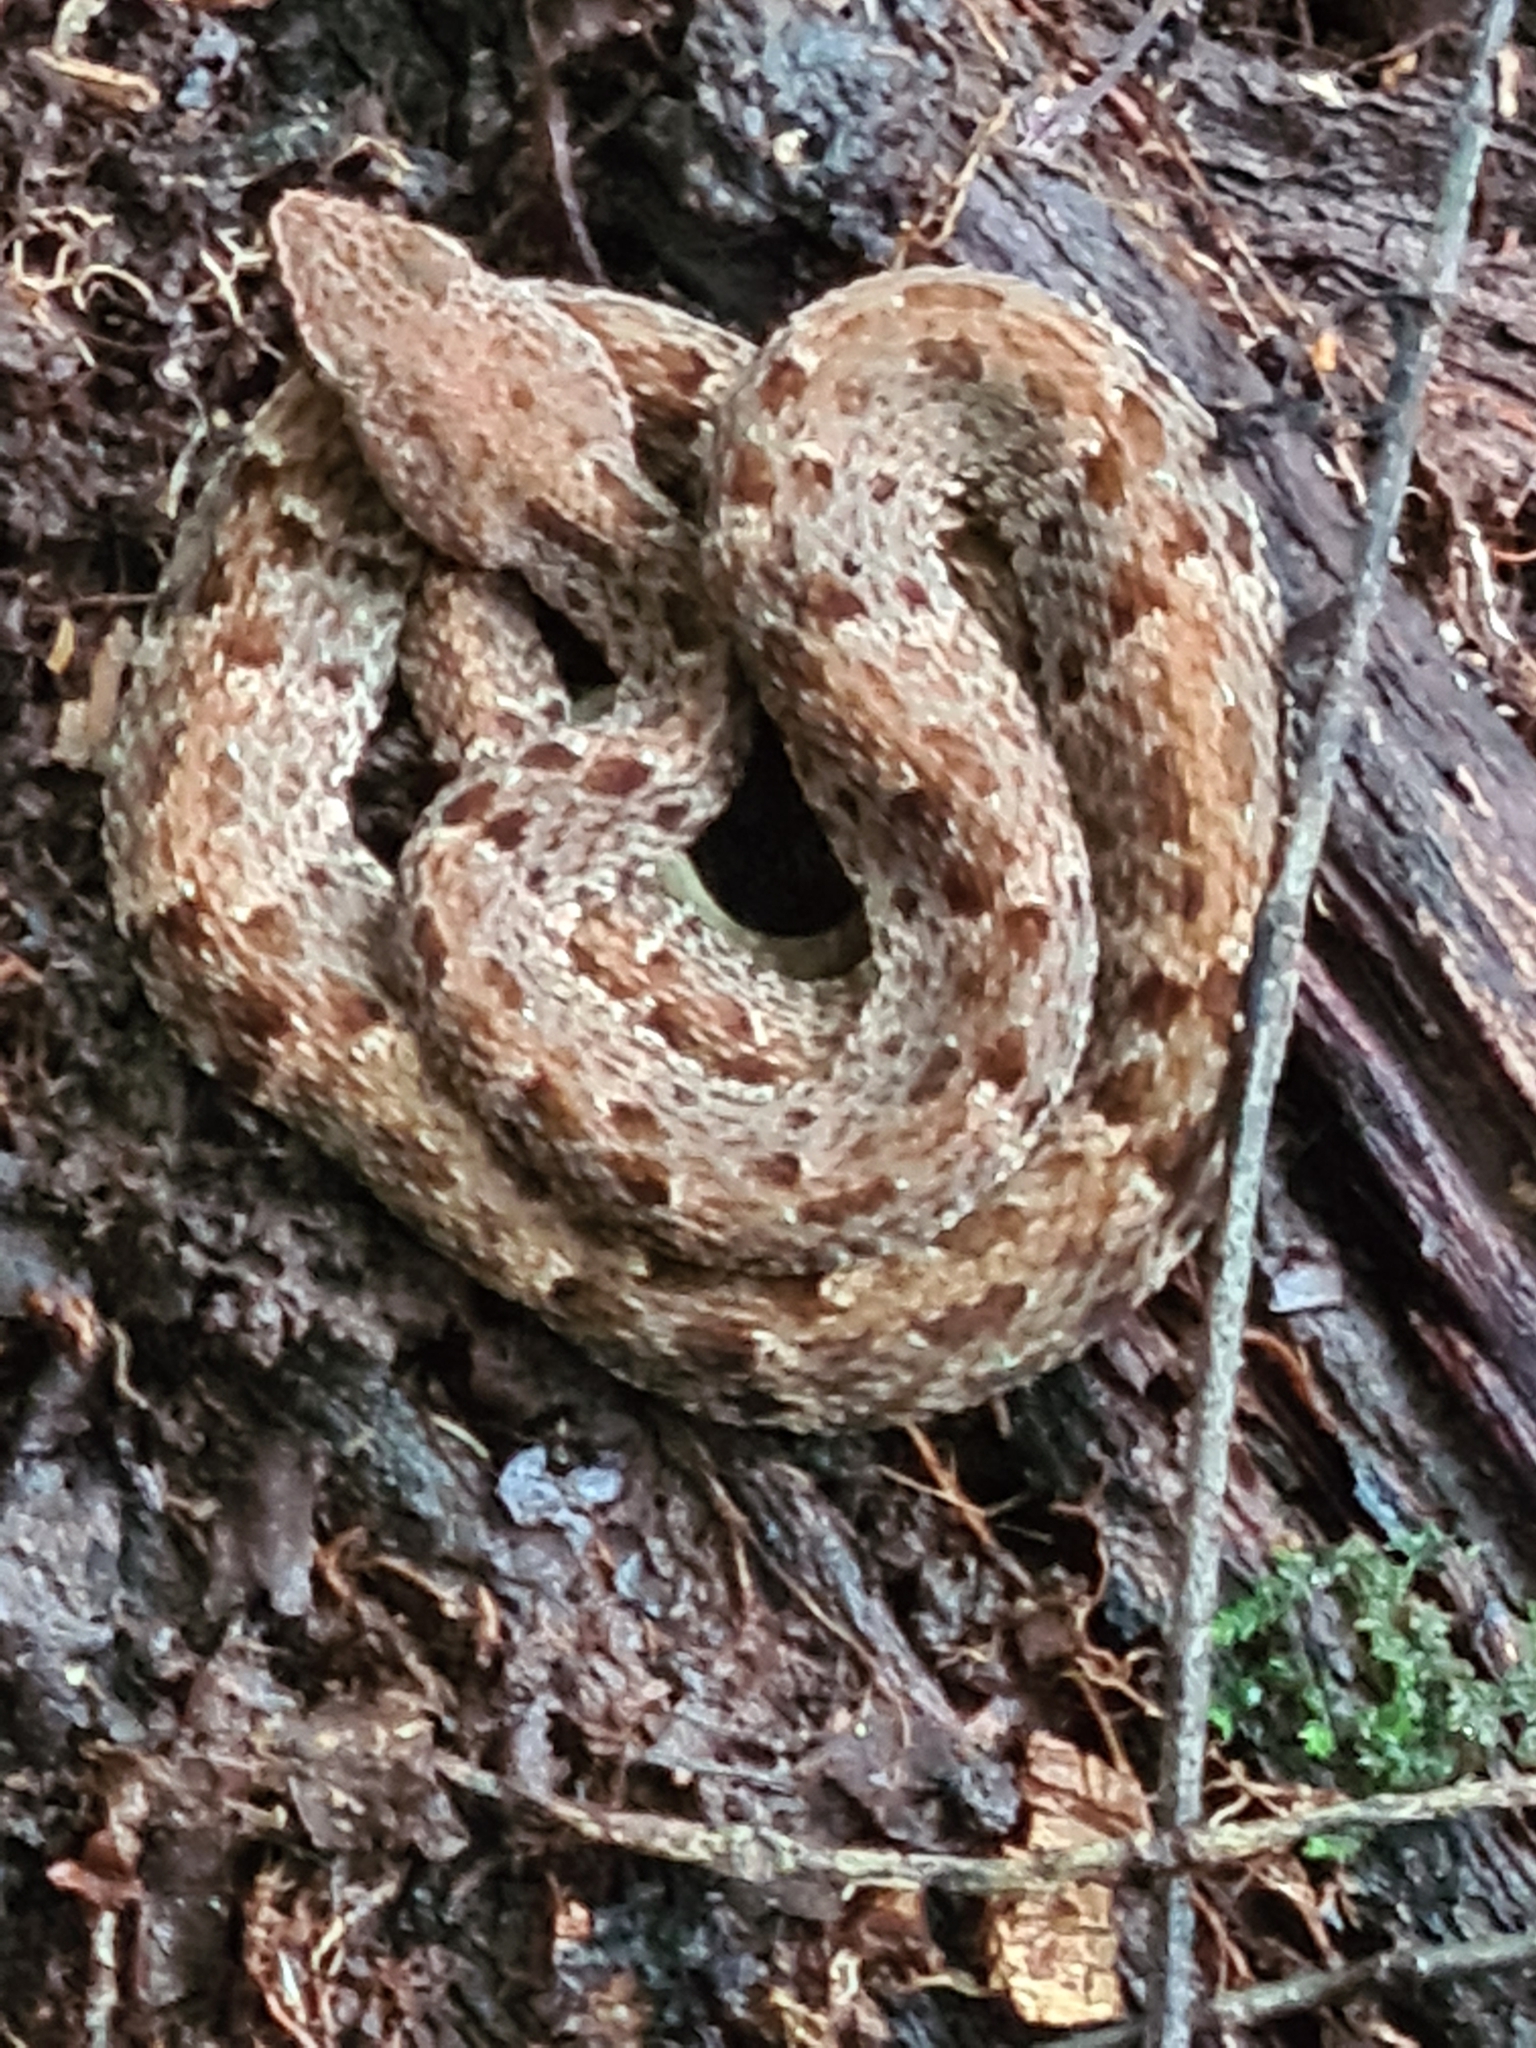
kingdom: Animalia
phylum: Chordata
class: Squamata
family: Viperidae
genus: Bothrops
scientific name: Bothrops atrox
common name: Common lancehead
